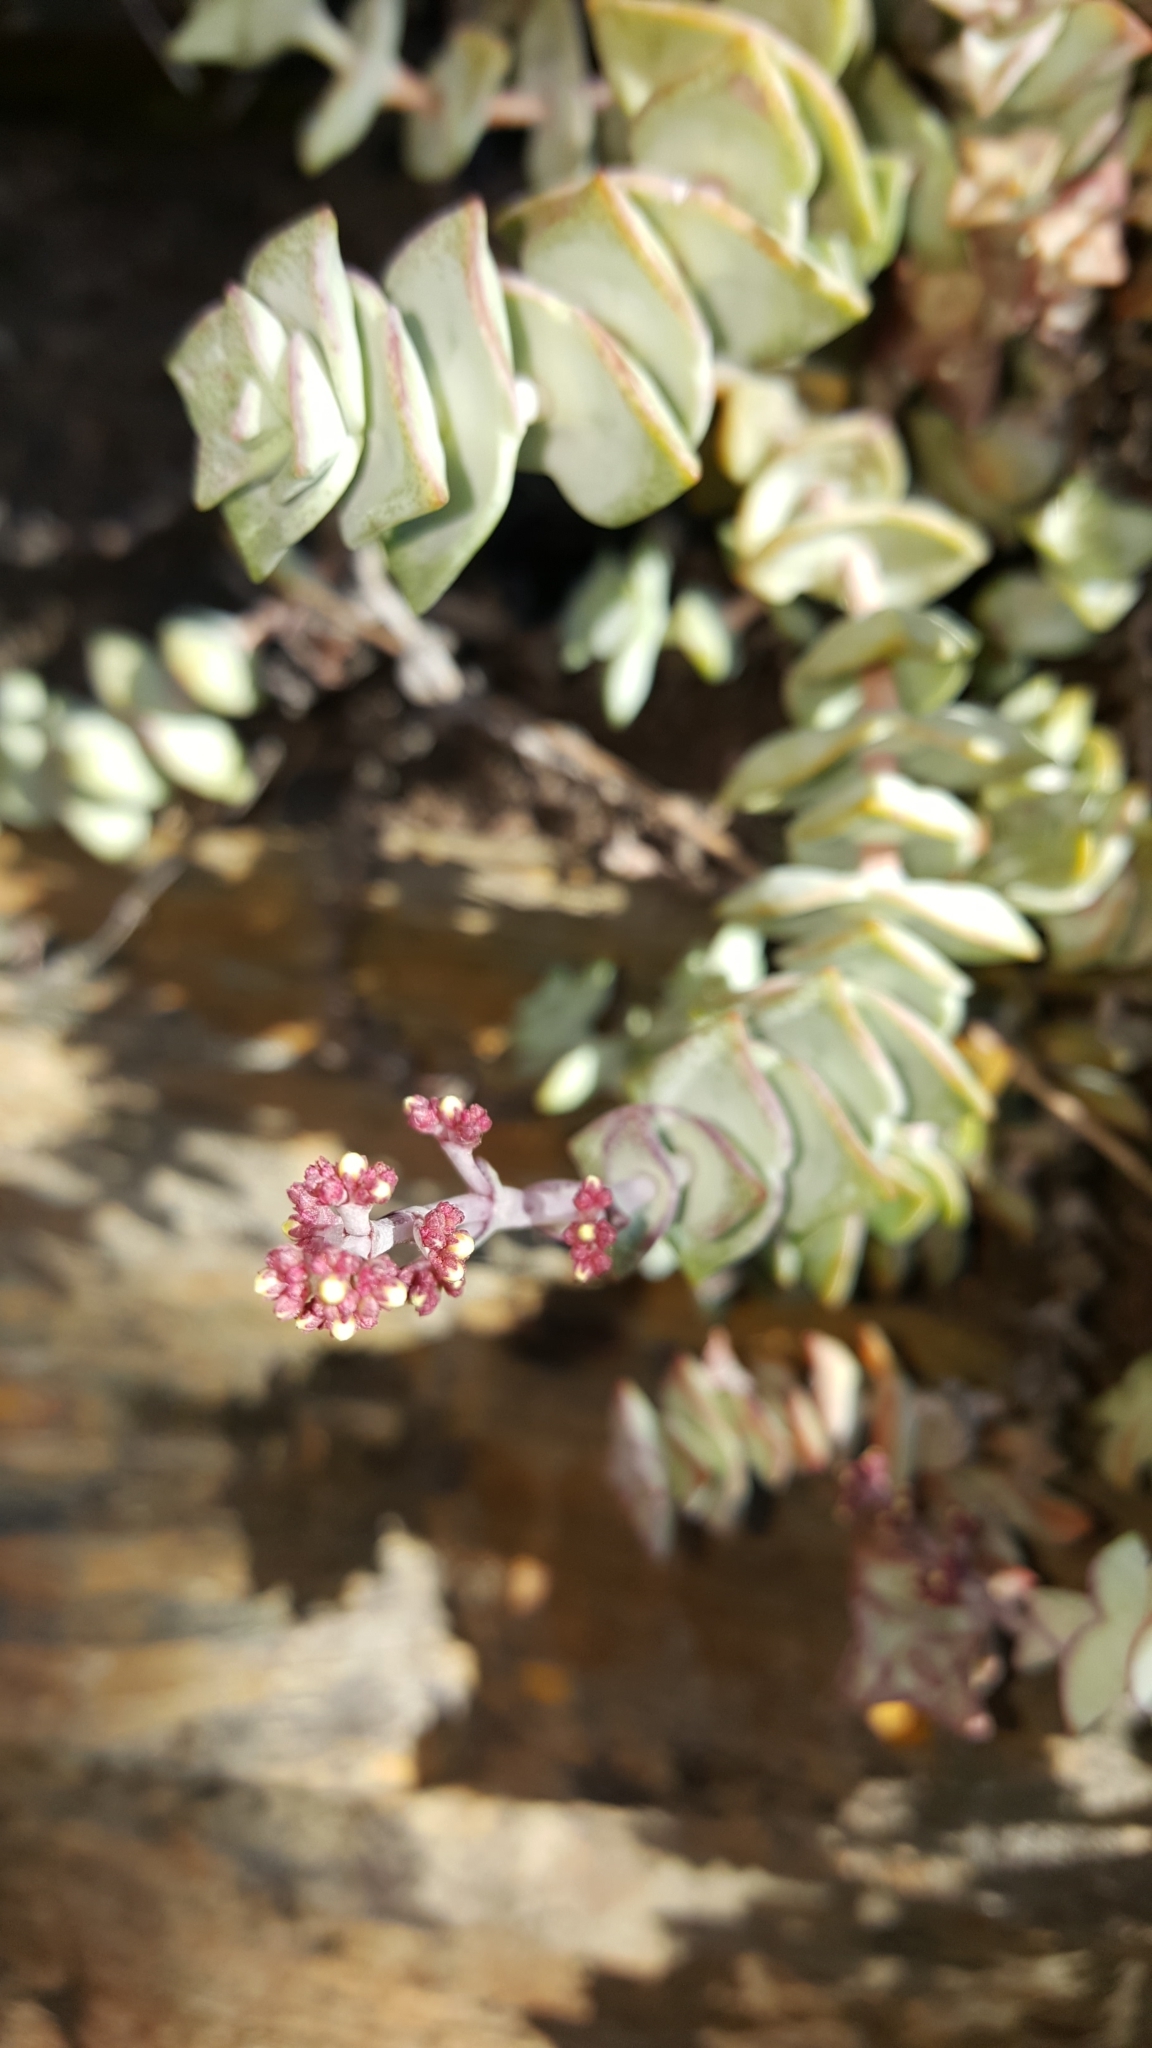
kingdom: Plantae
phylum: Tracheophyta
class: Magnoliopsida
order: Saxifragales
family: Crassulaceae
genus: Crassula
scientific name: Crassula perforata
